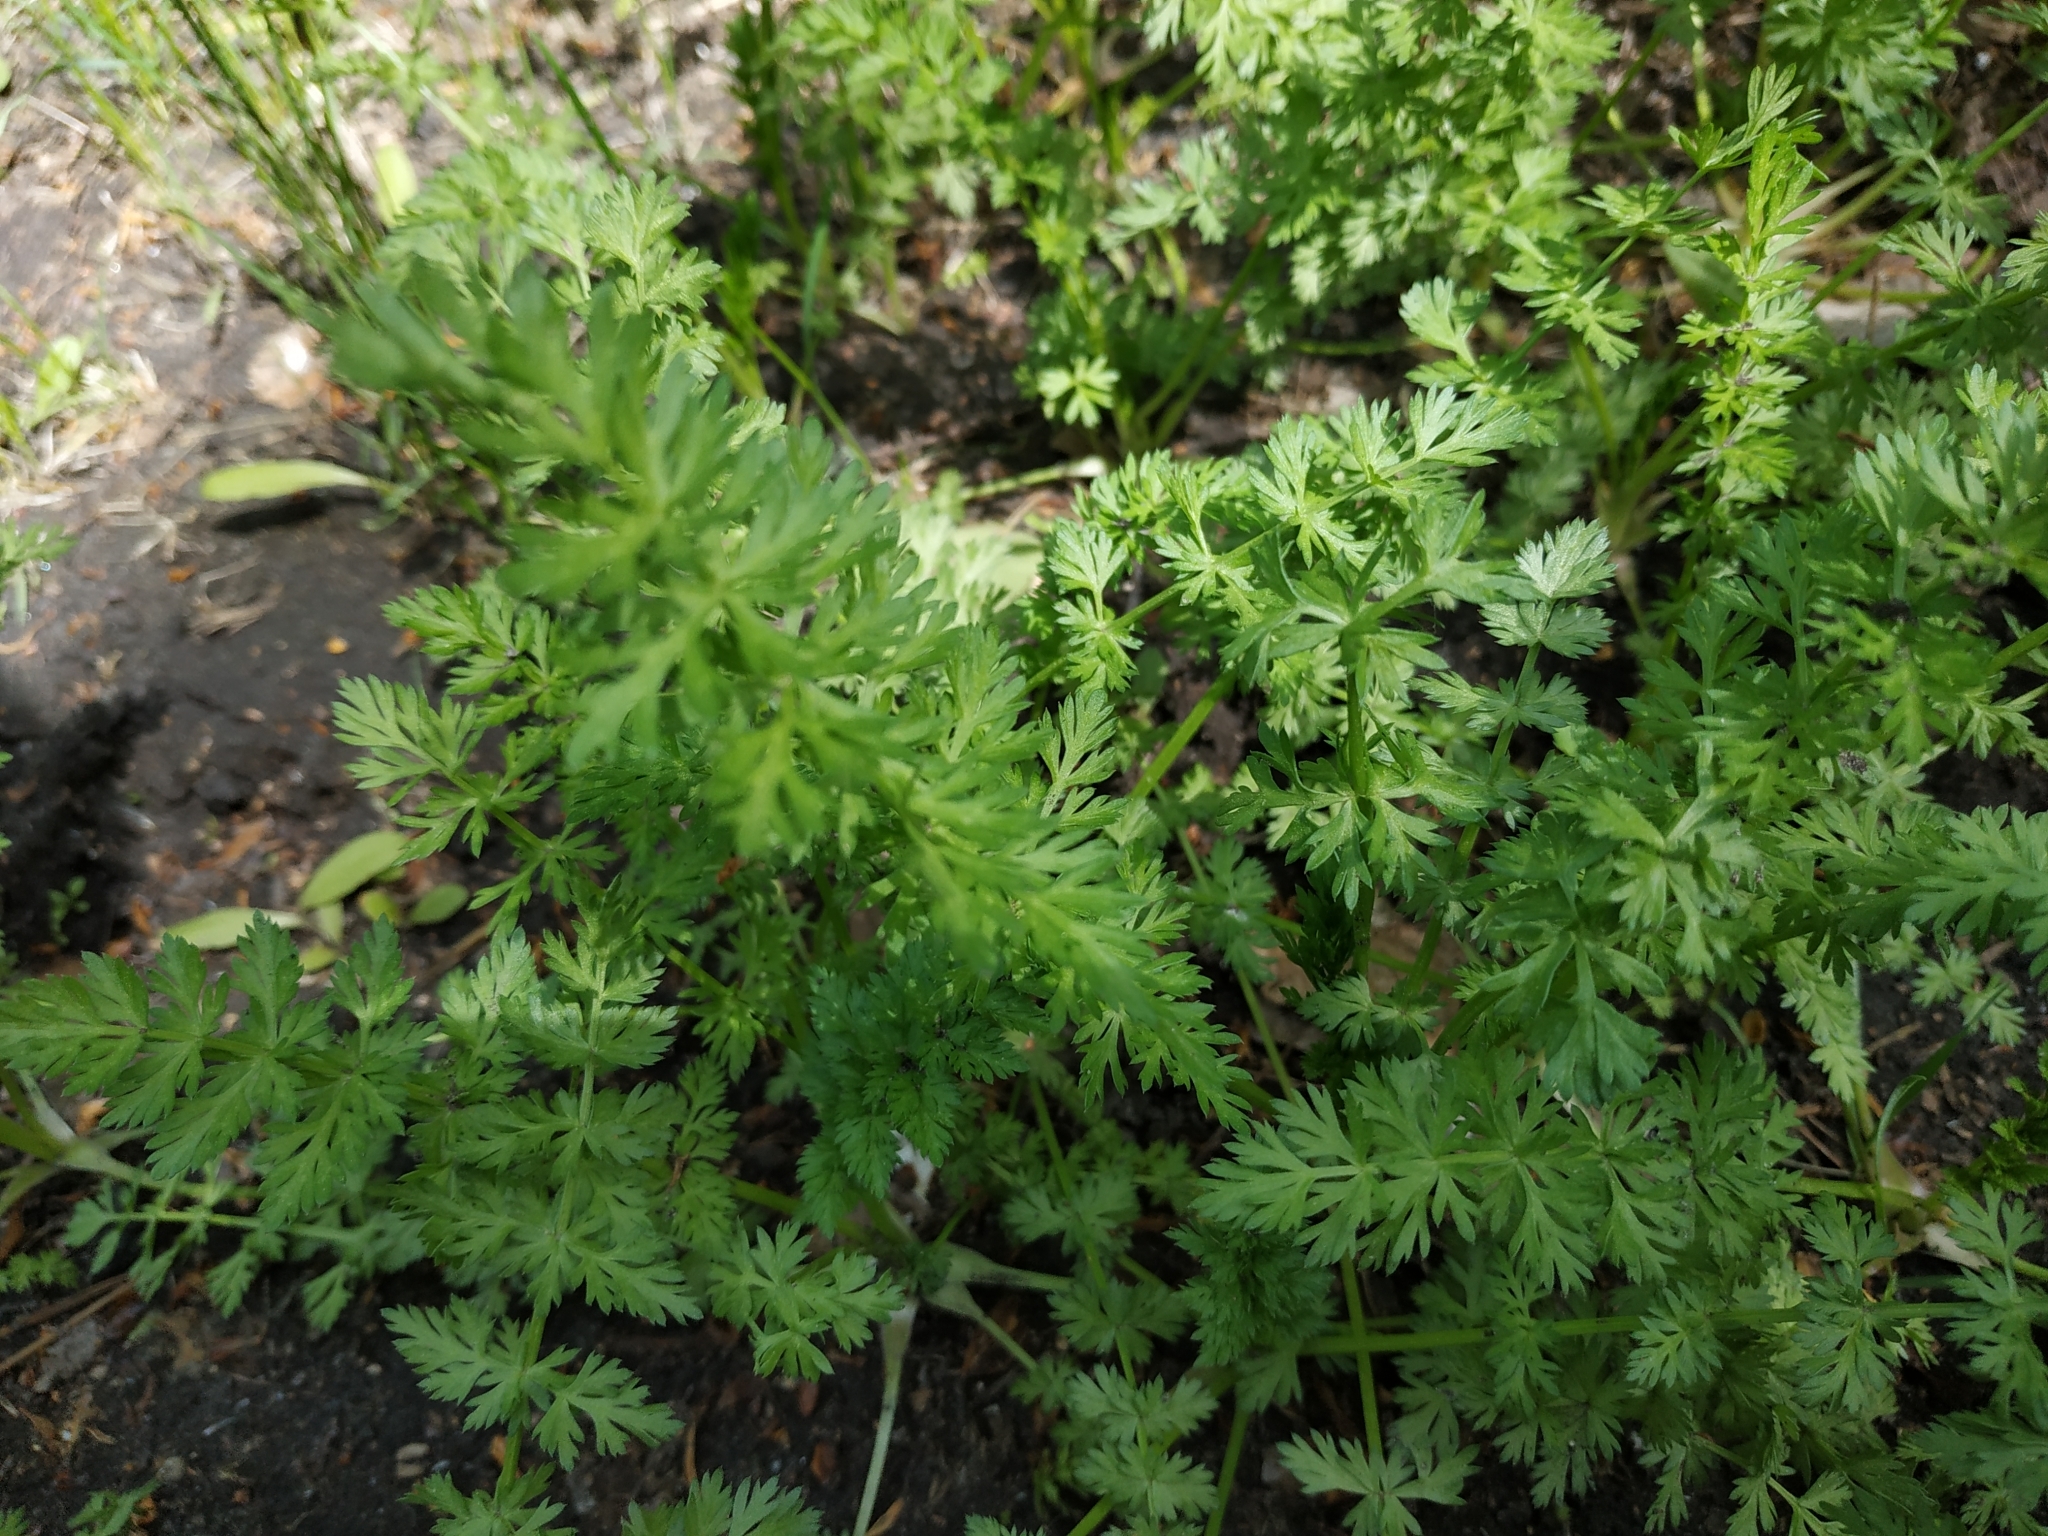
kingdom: Plantae
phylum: Tracheophyta
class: Magnoliopsida
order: Apiales
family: Apiaceae
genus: Carum
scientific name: Carum carvi
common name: Caraway
